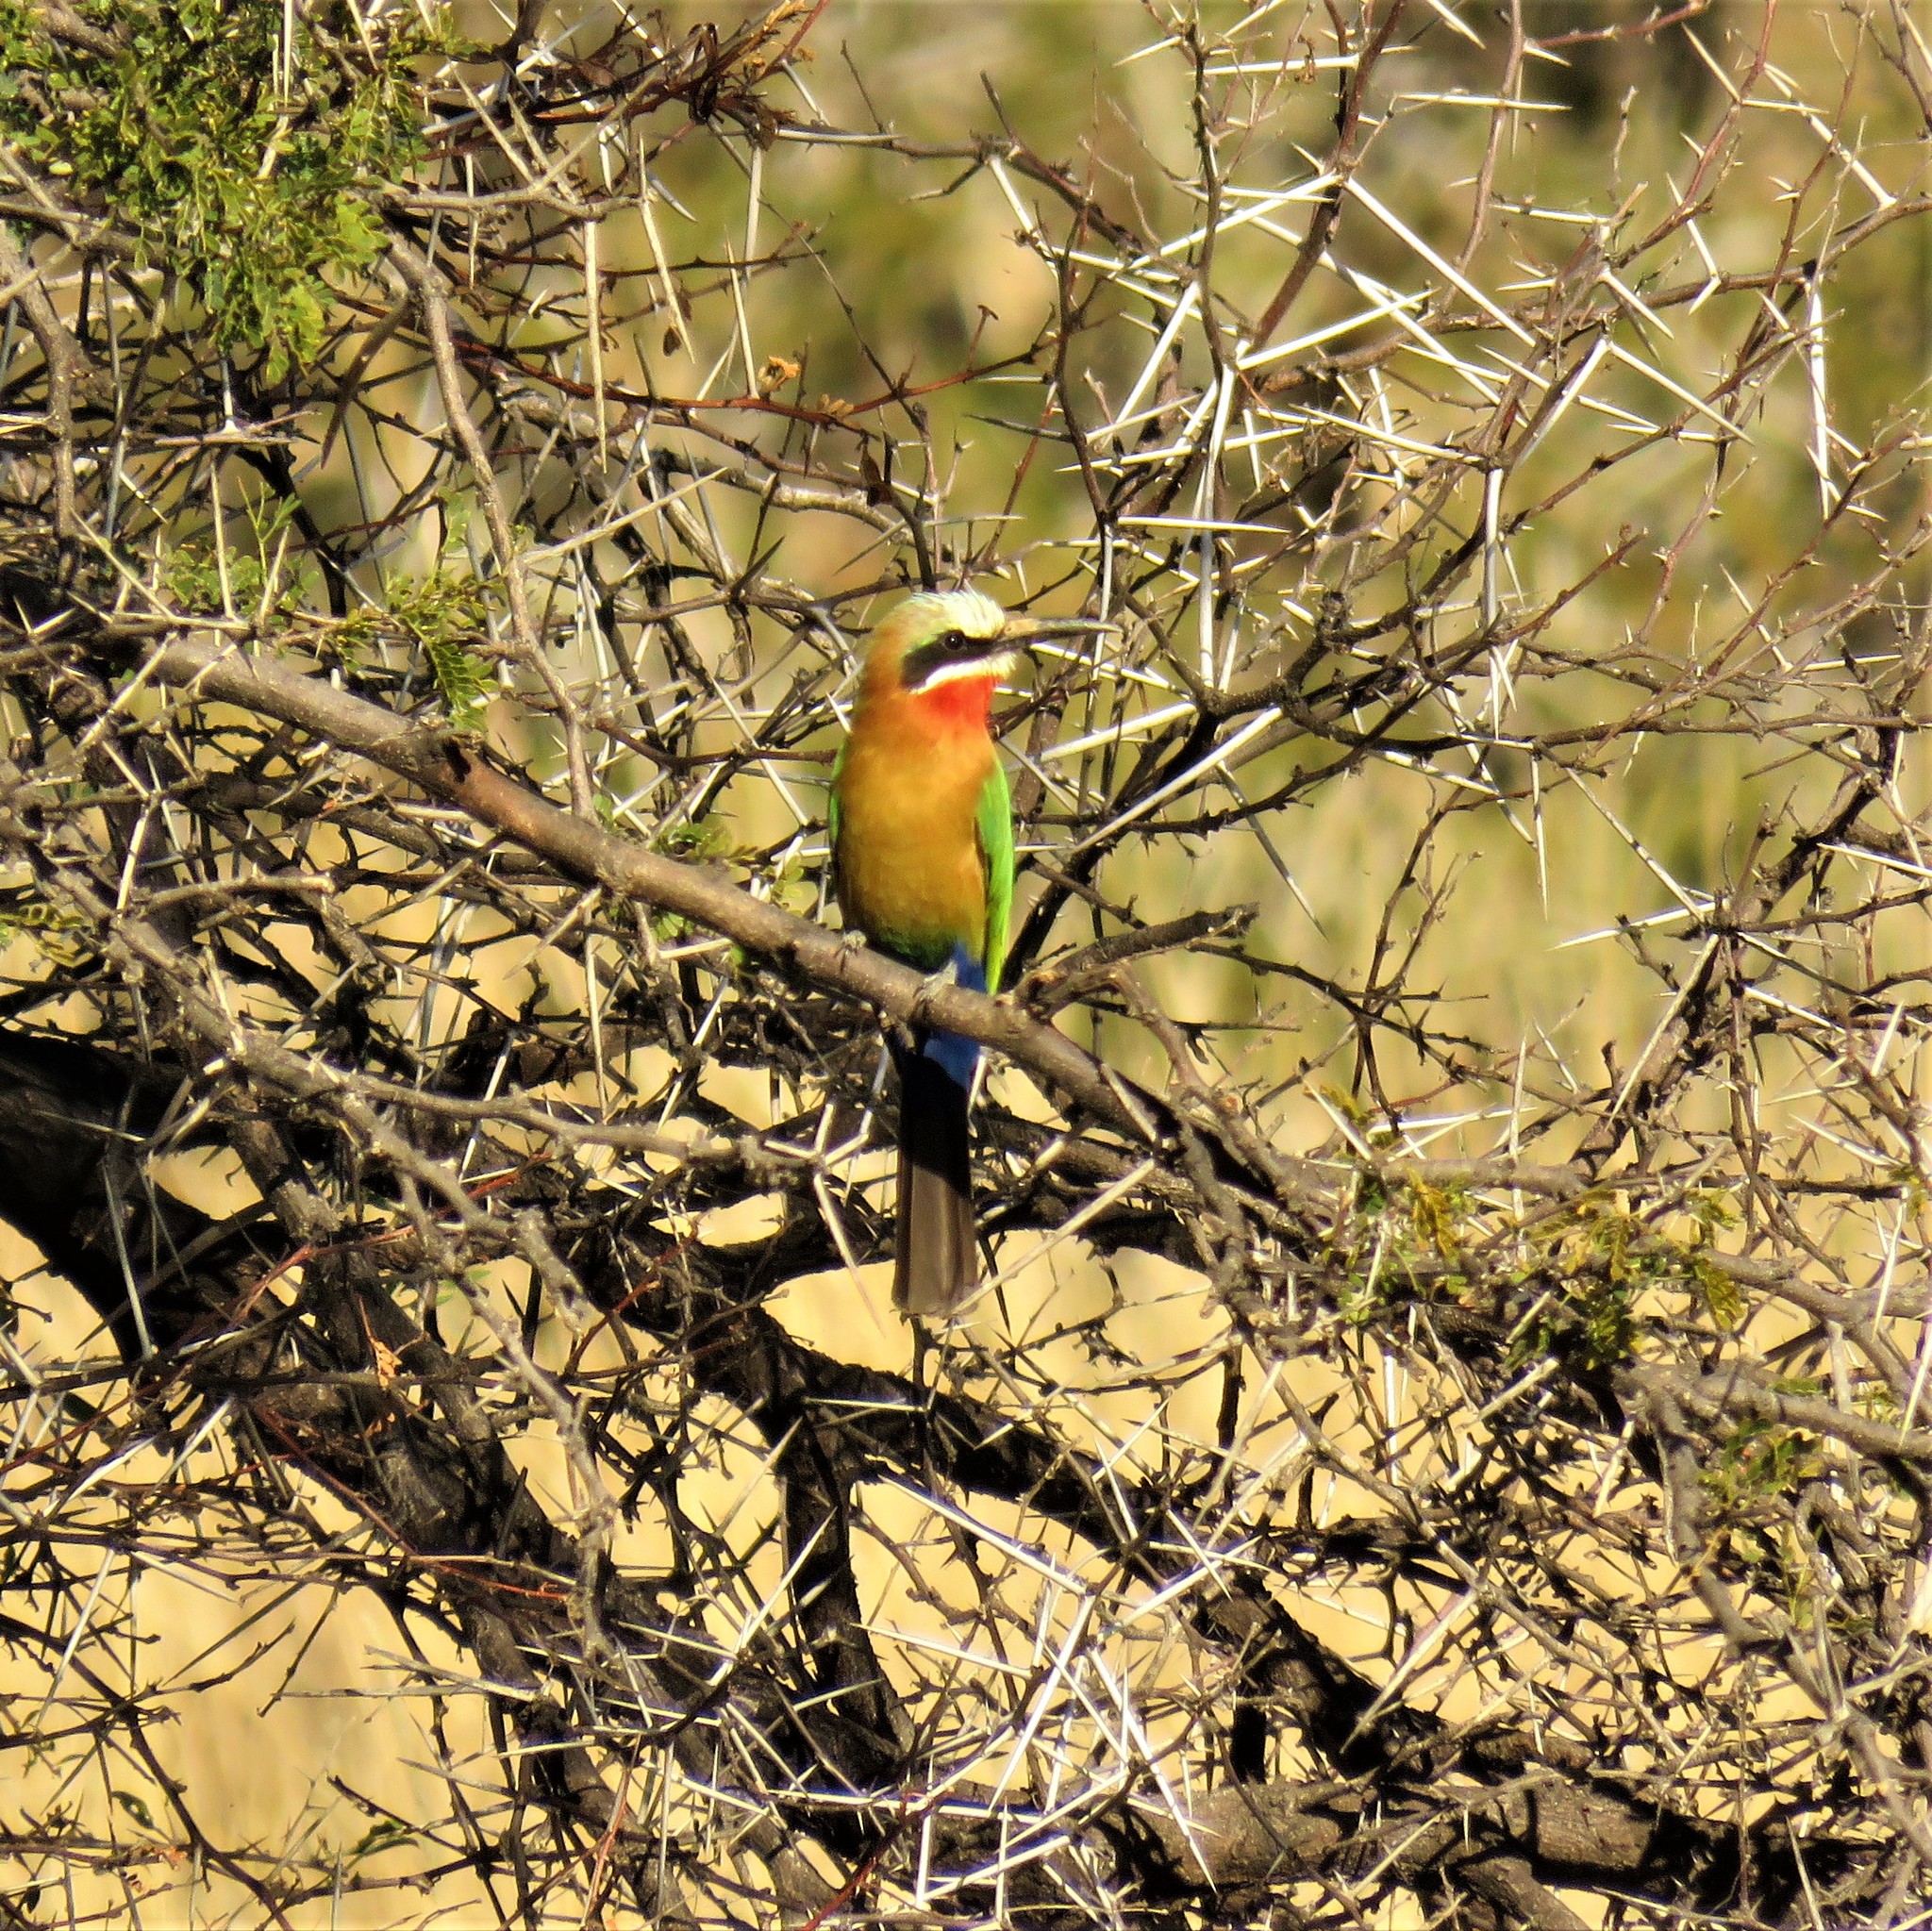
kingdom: Animalia
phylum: Chordata
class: Aves
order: Coraciiformes
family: Meropidae
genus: Merops
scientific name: Merops bullockoides
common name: White-fronted bee-eater
